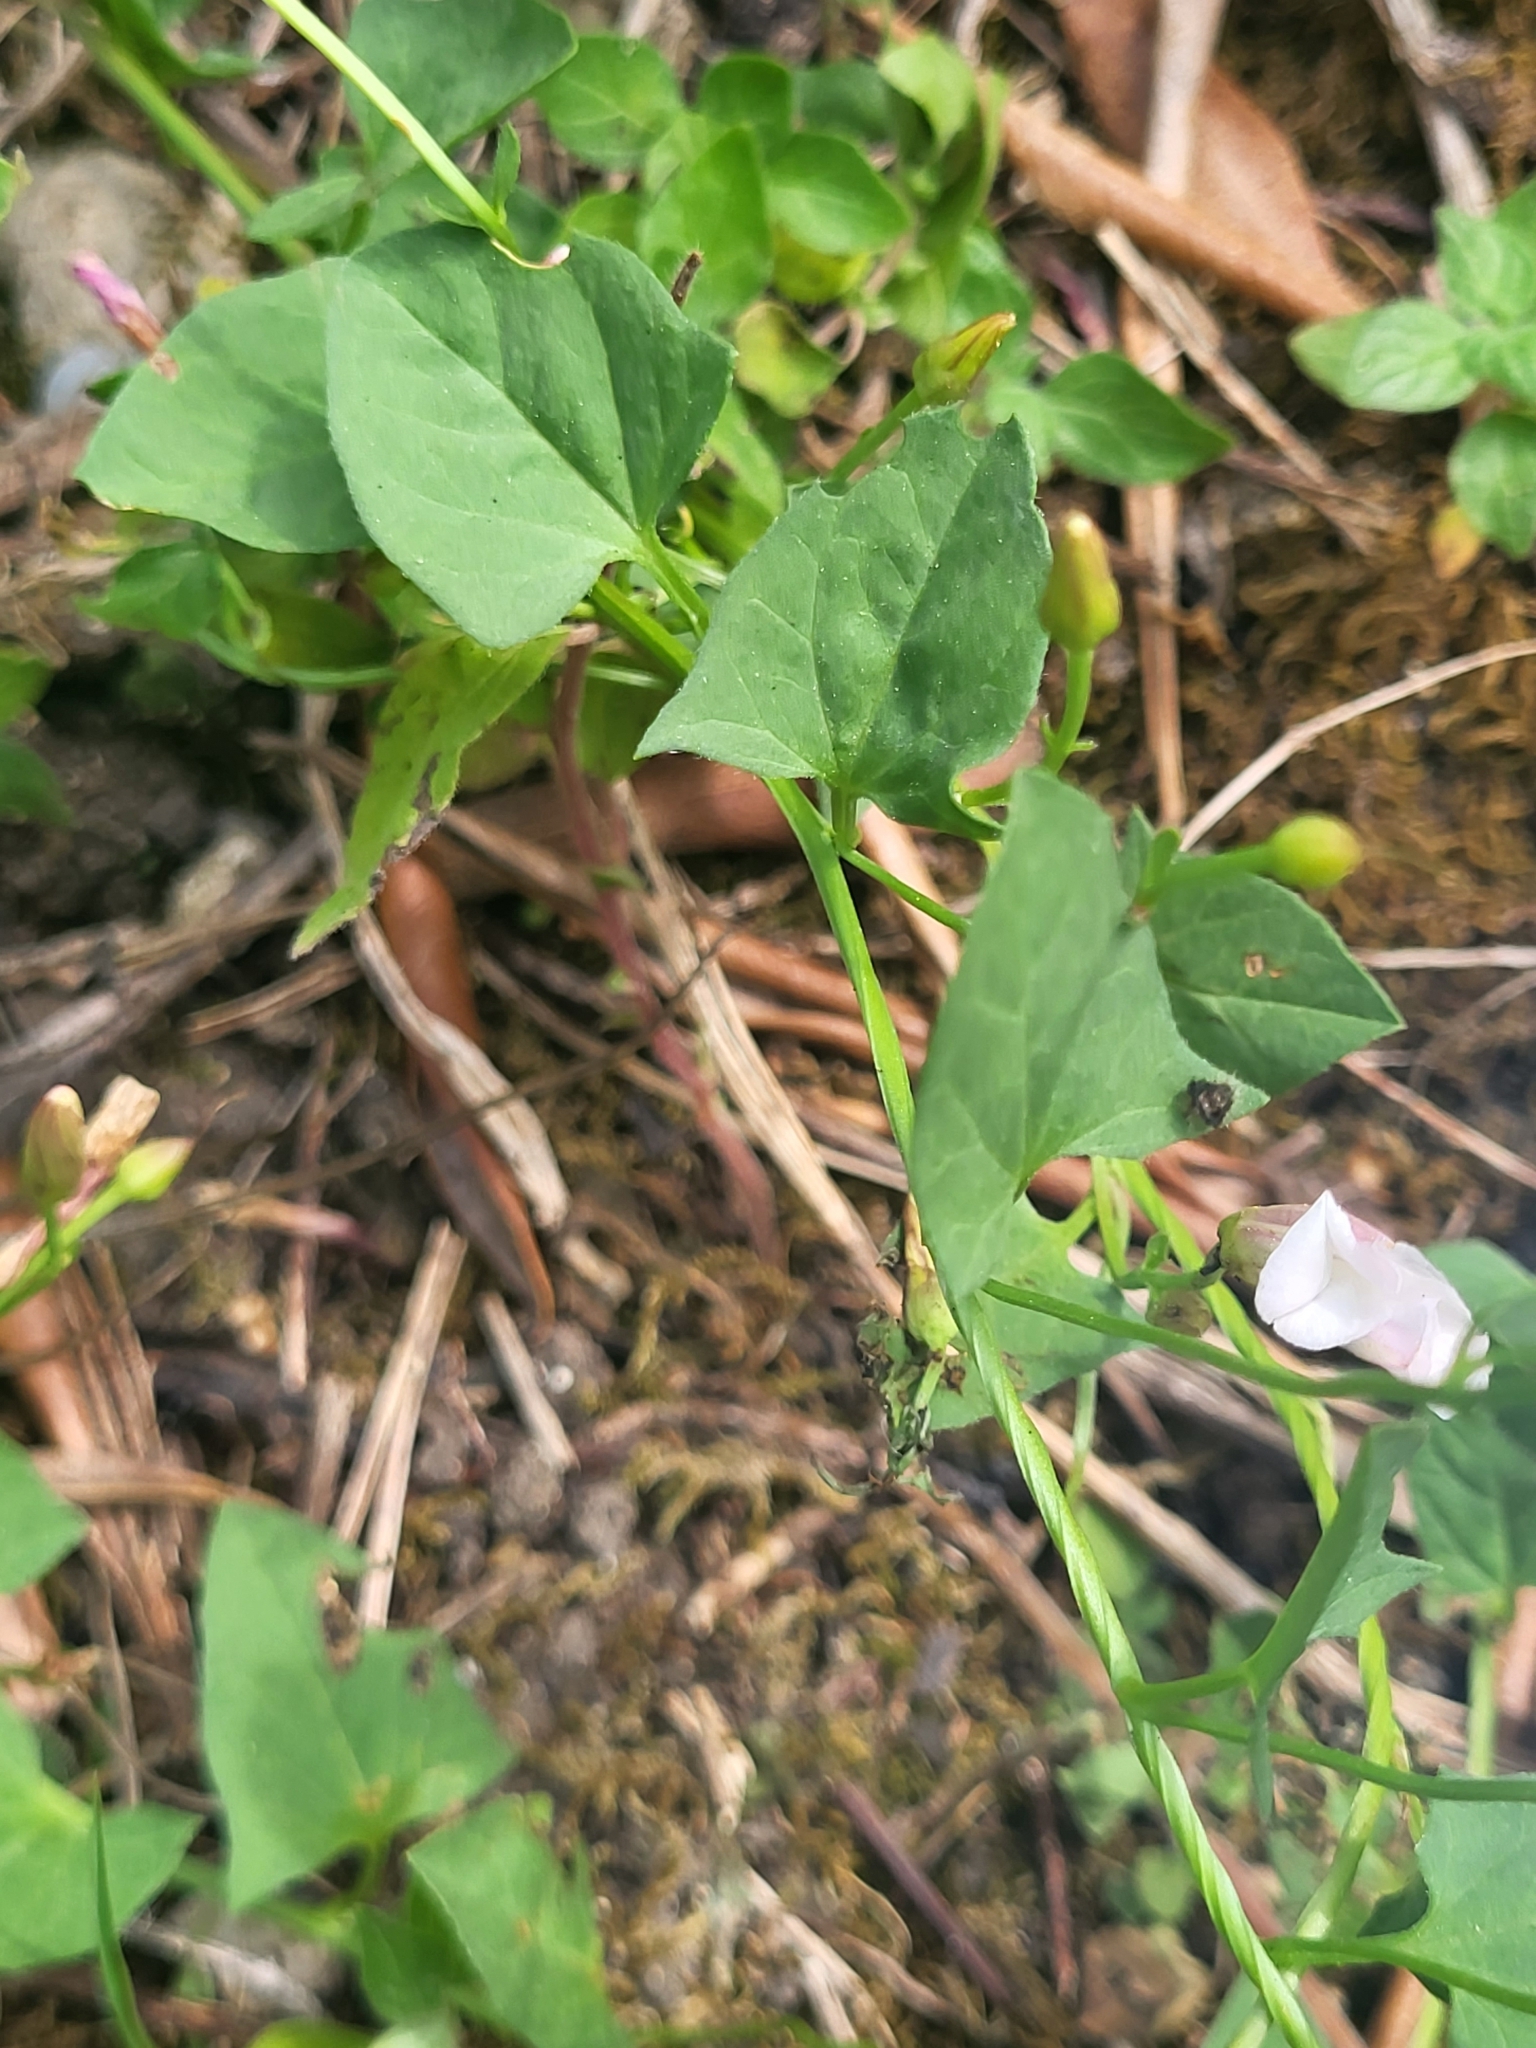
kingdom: Plantae
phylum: Tracheophyta
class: Magnoliopsida
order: Solanales
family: Convolvulaceae
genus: Convolvulus
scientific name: Convolvulus arvensis
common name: Field bindweed
